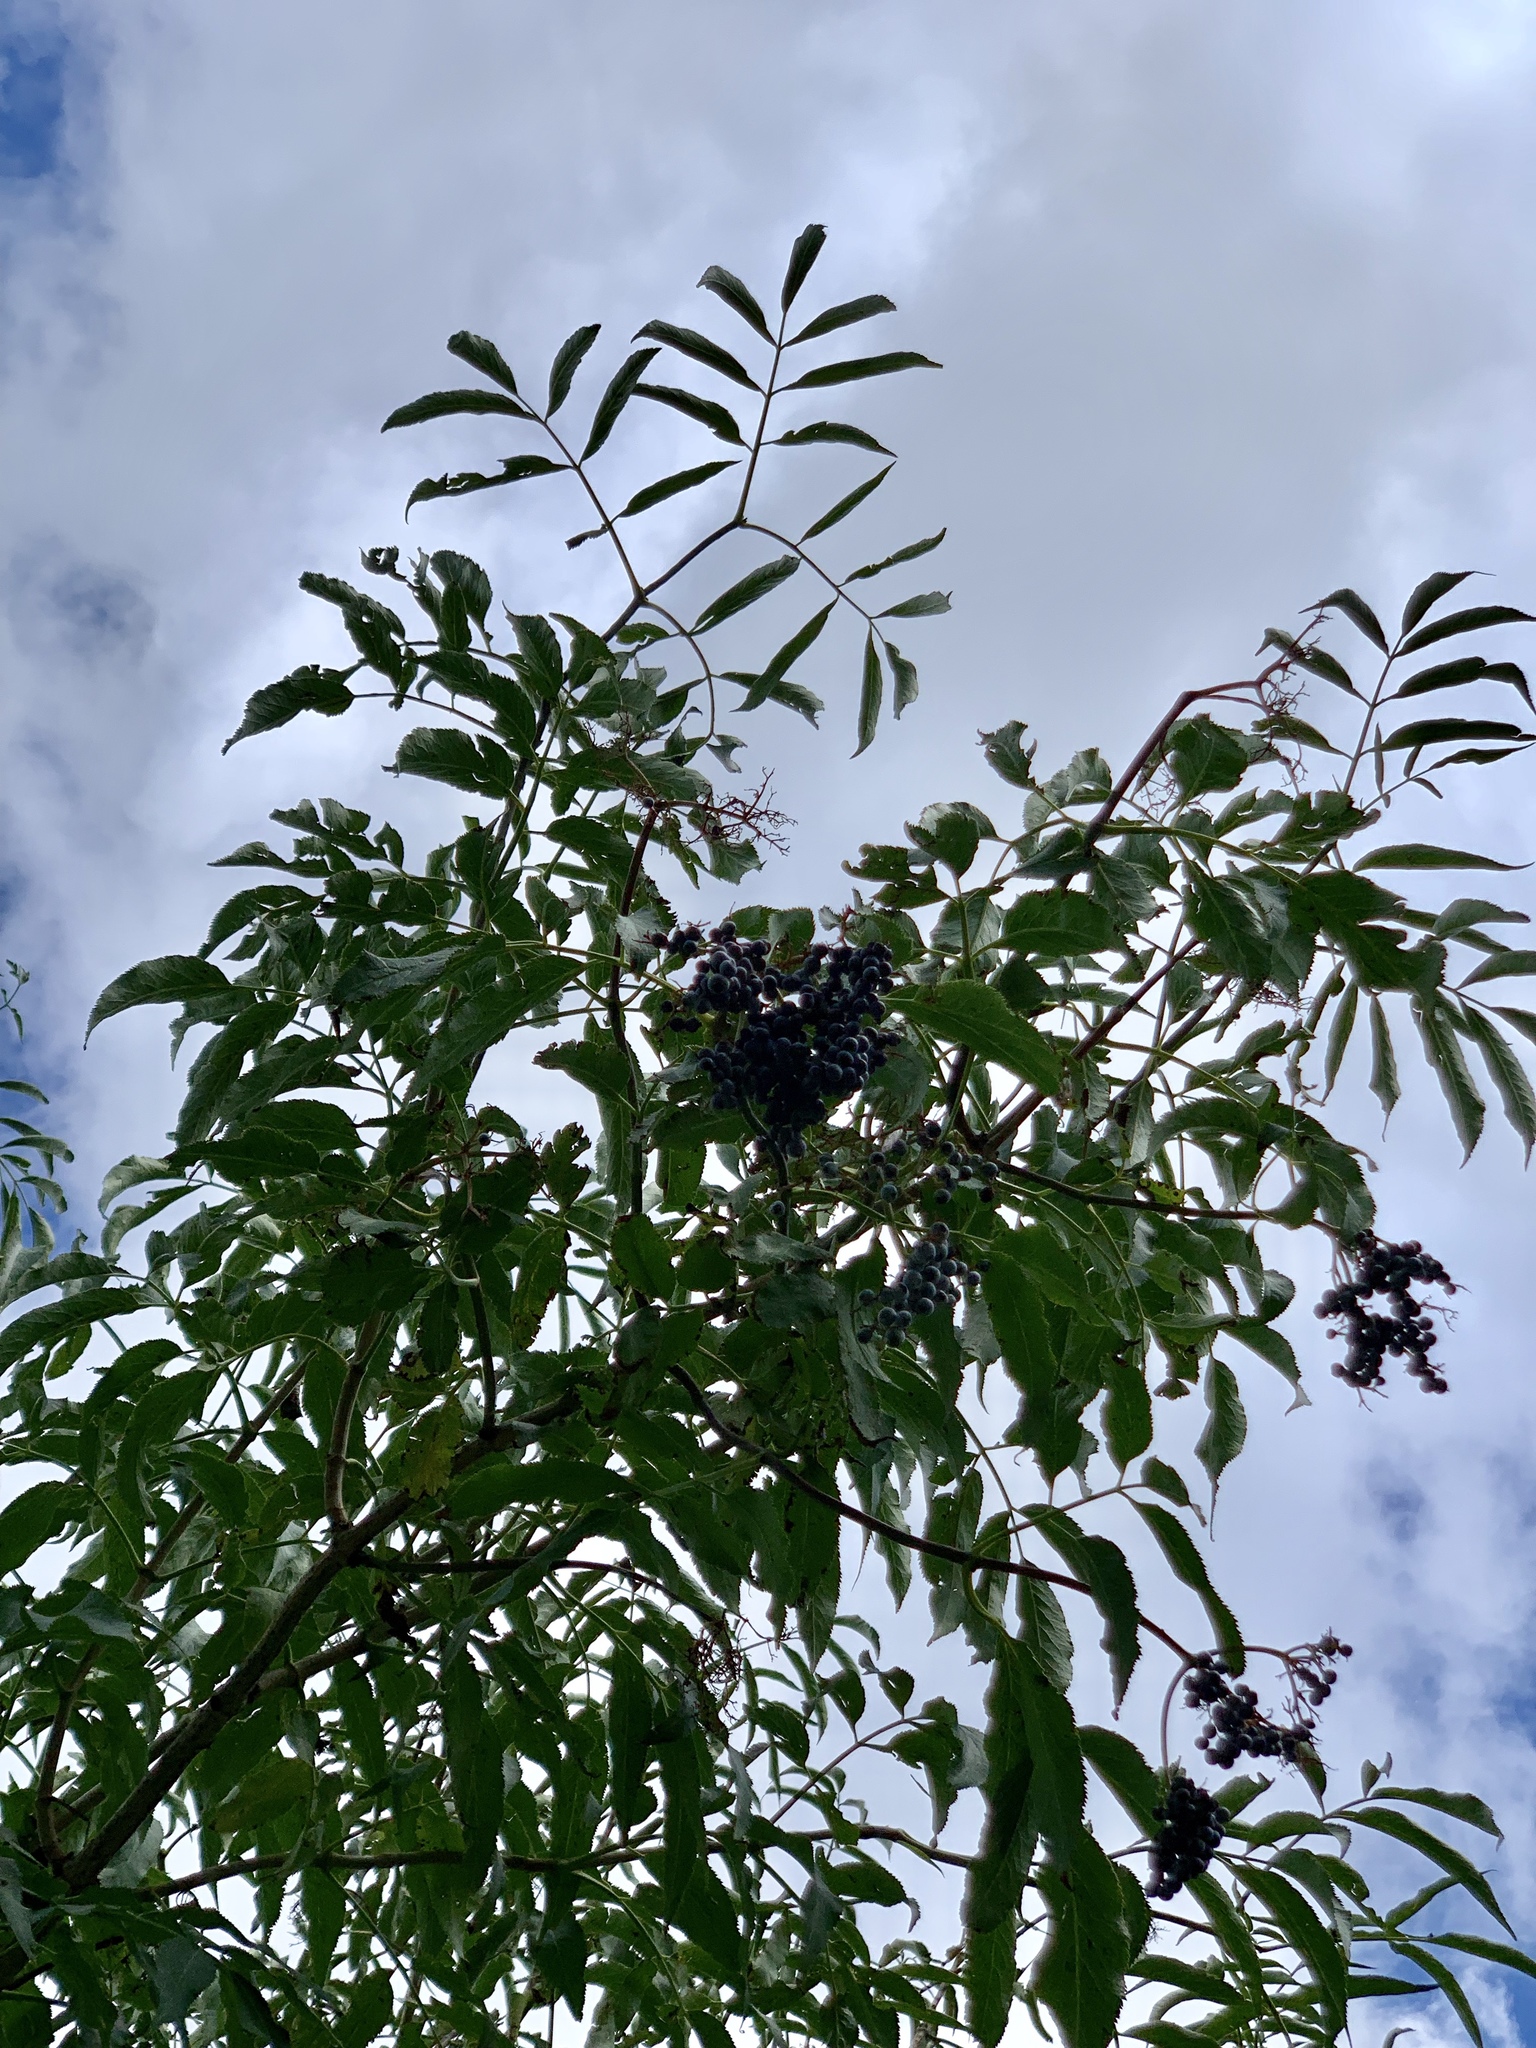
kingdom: Plantae
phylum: Tracheophyta
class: Magnoliopsida
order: Dipsacales
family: Viburnaceae
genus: Sambucus
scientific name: Sambucus cerulea
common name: Blue elder
